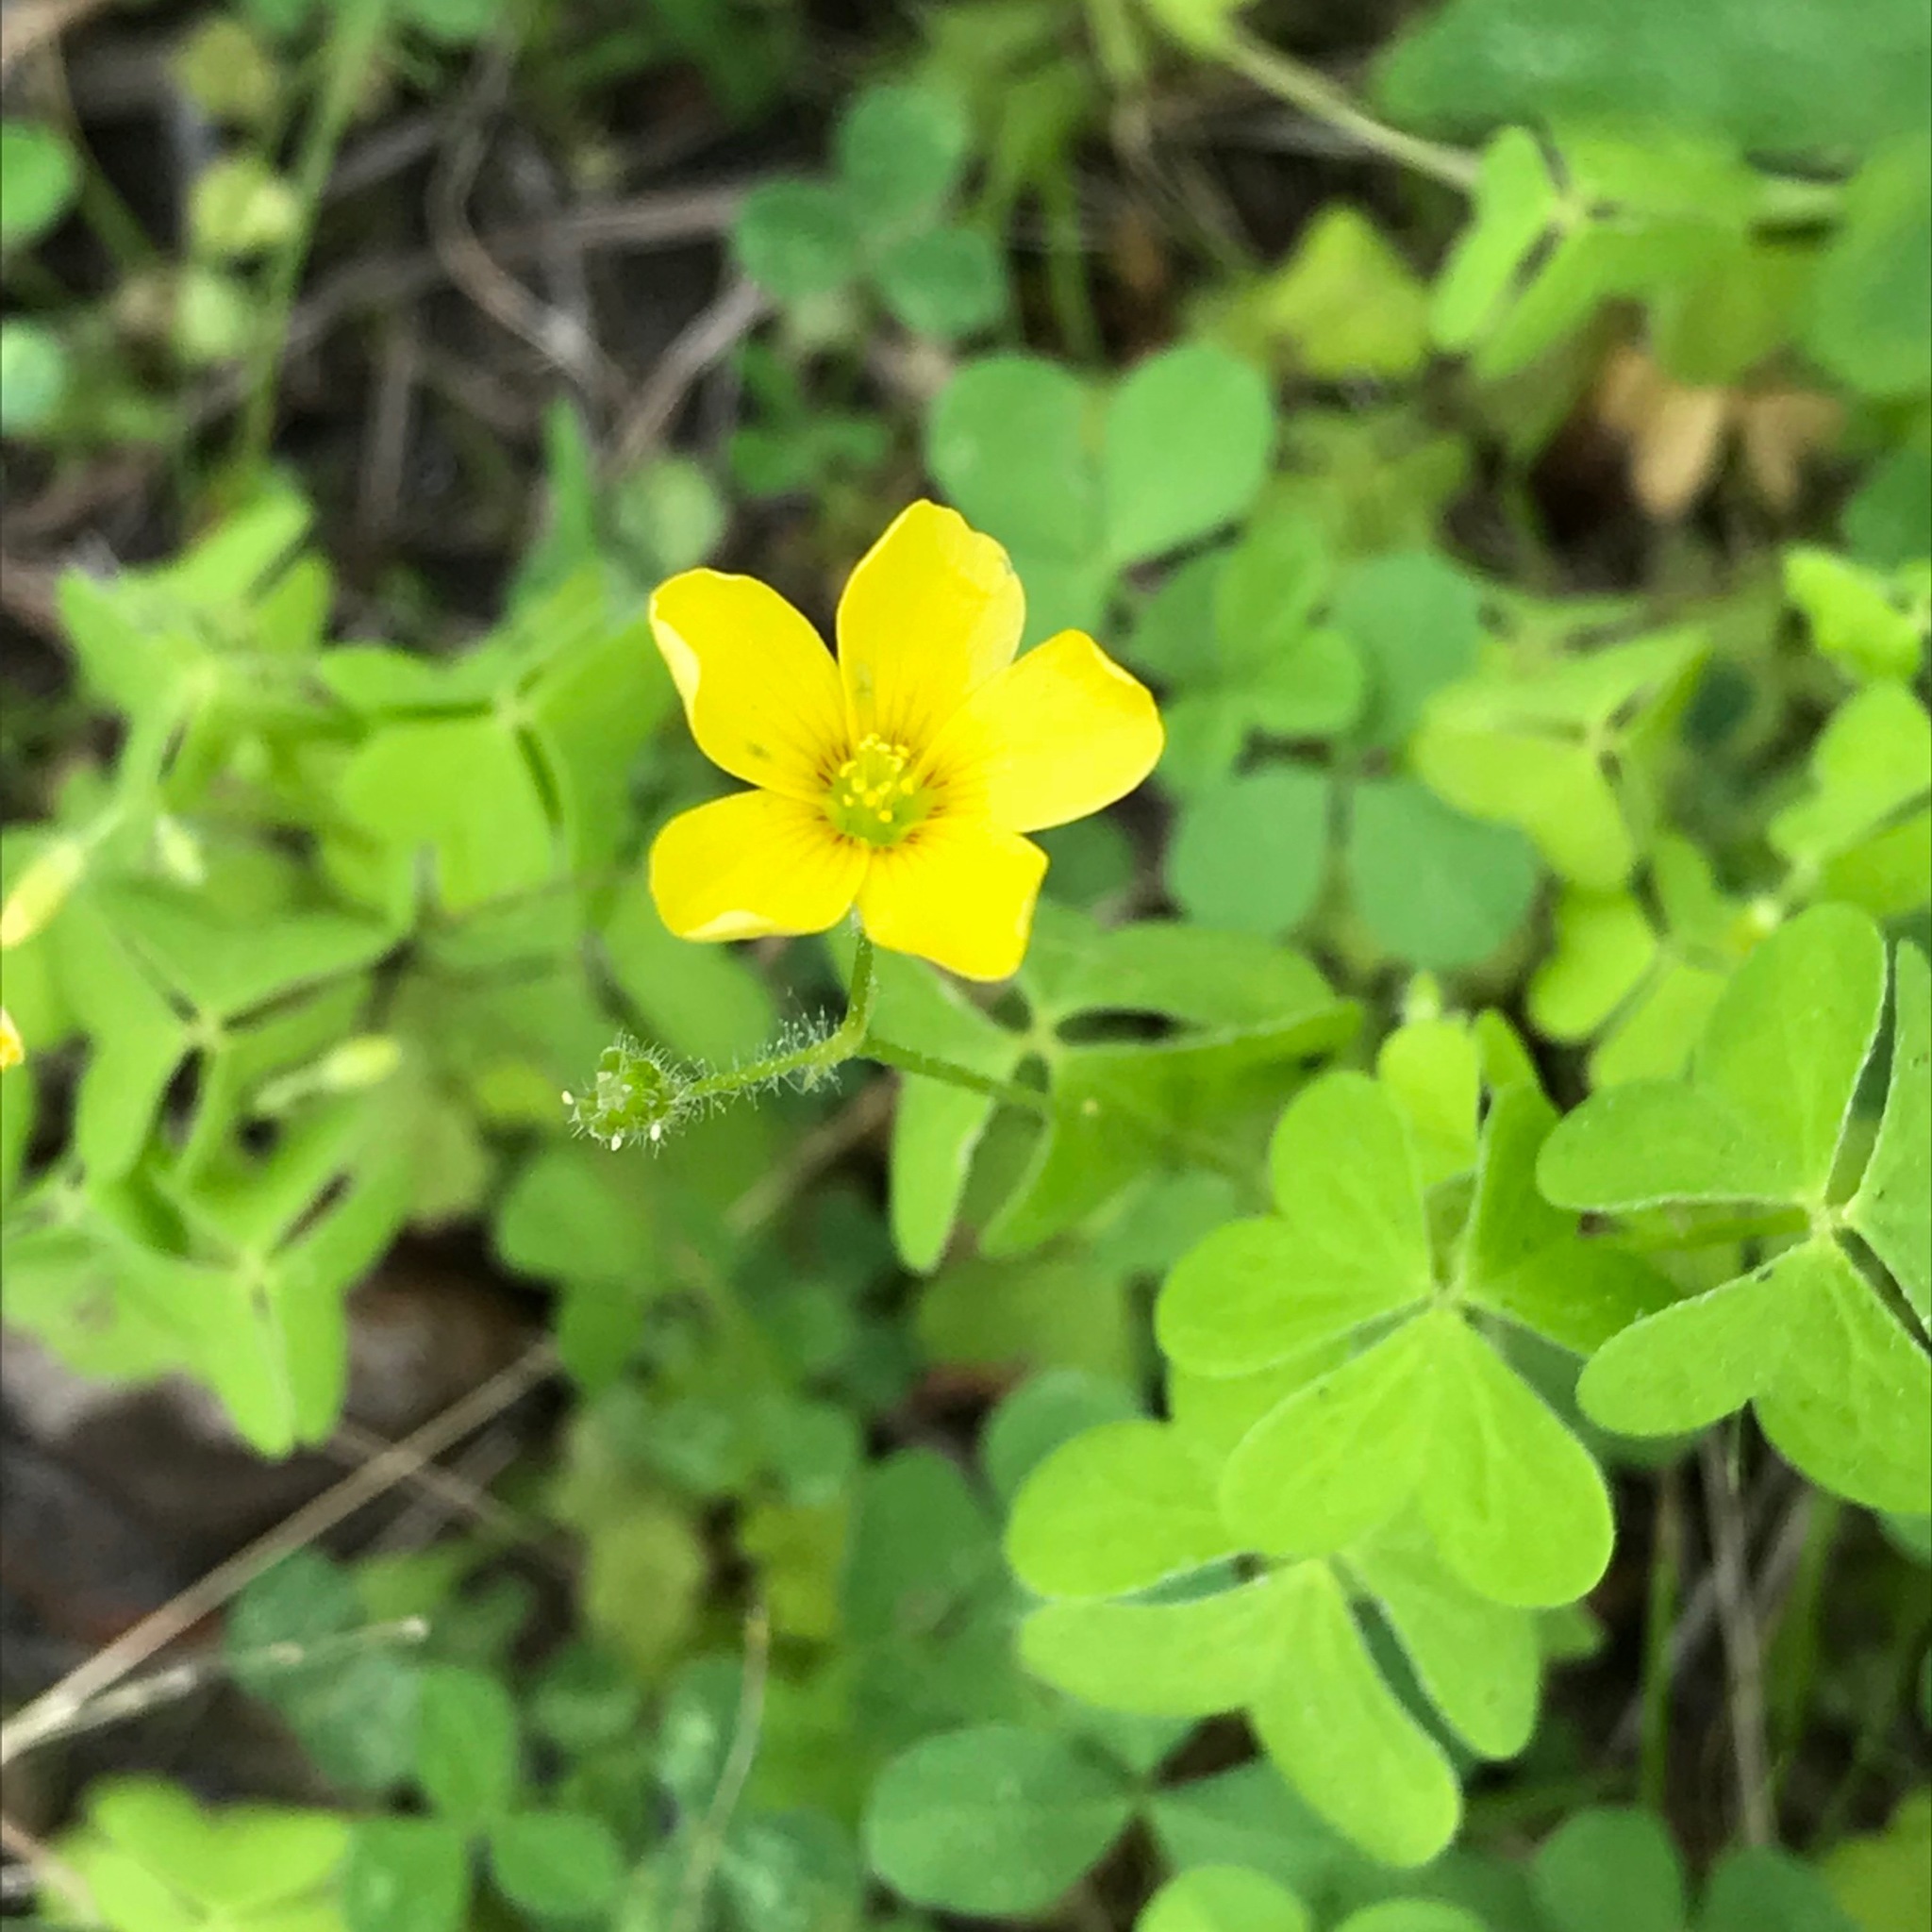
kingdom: Plantae
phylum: Tracheophyta
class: Magnoliopsida
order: Oxalidales
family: Oxalidaceae
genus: Oxalis
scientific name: Oxalis stricta
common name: Upright yellow-sorrel
